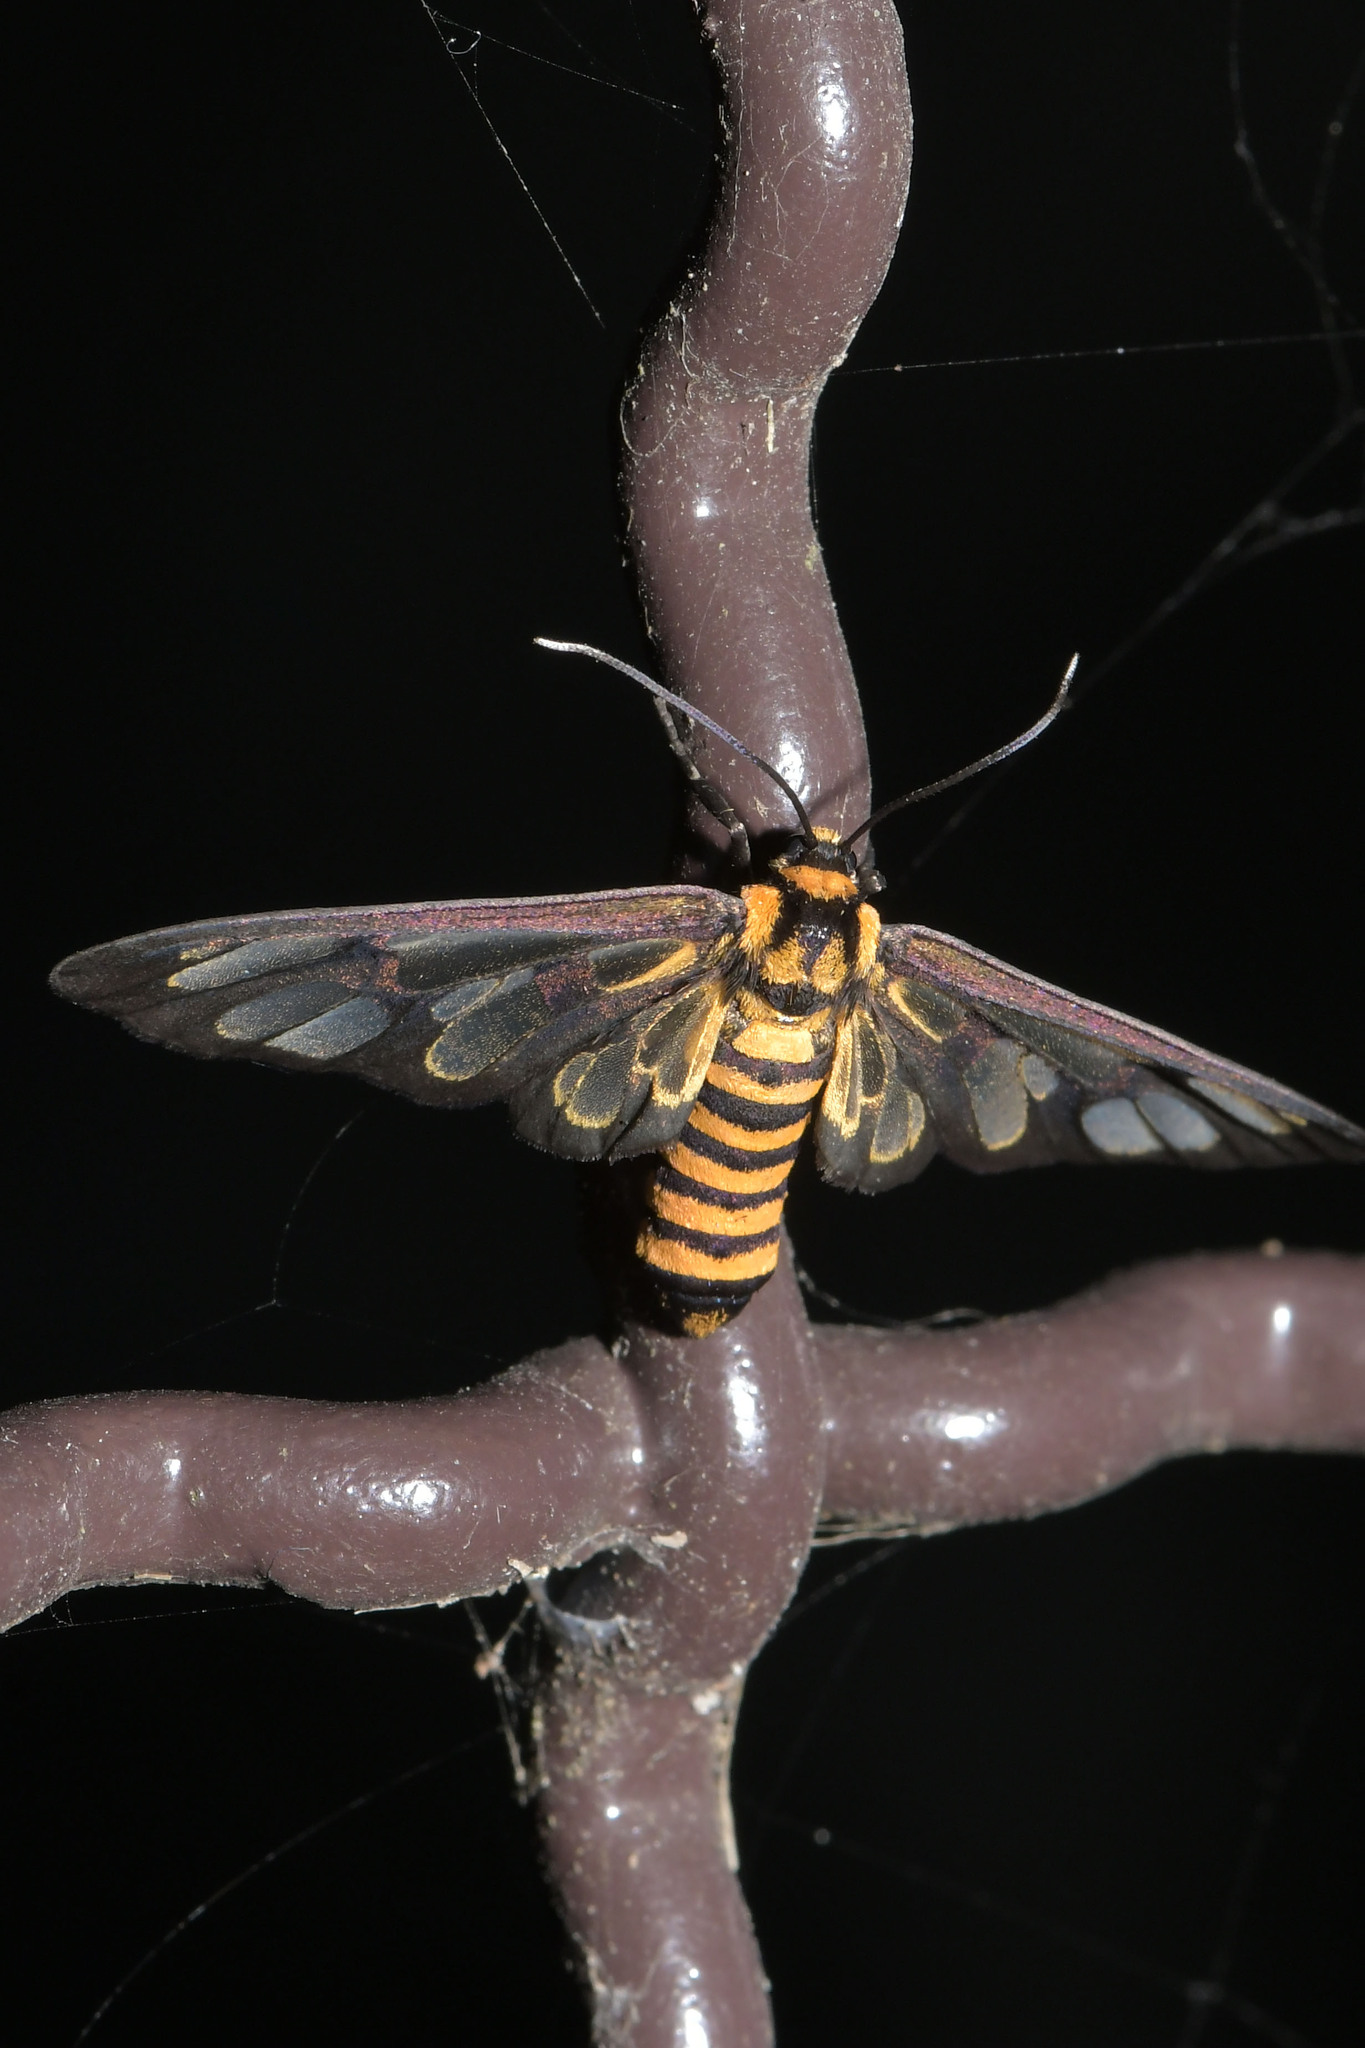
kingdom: Animalia
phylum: Arthropoda
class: Insecta
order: Lepidoptera
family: Erebidae
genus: Amata
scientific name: Amata persimilis
